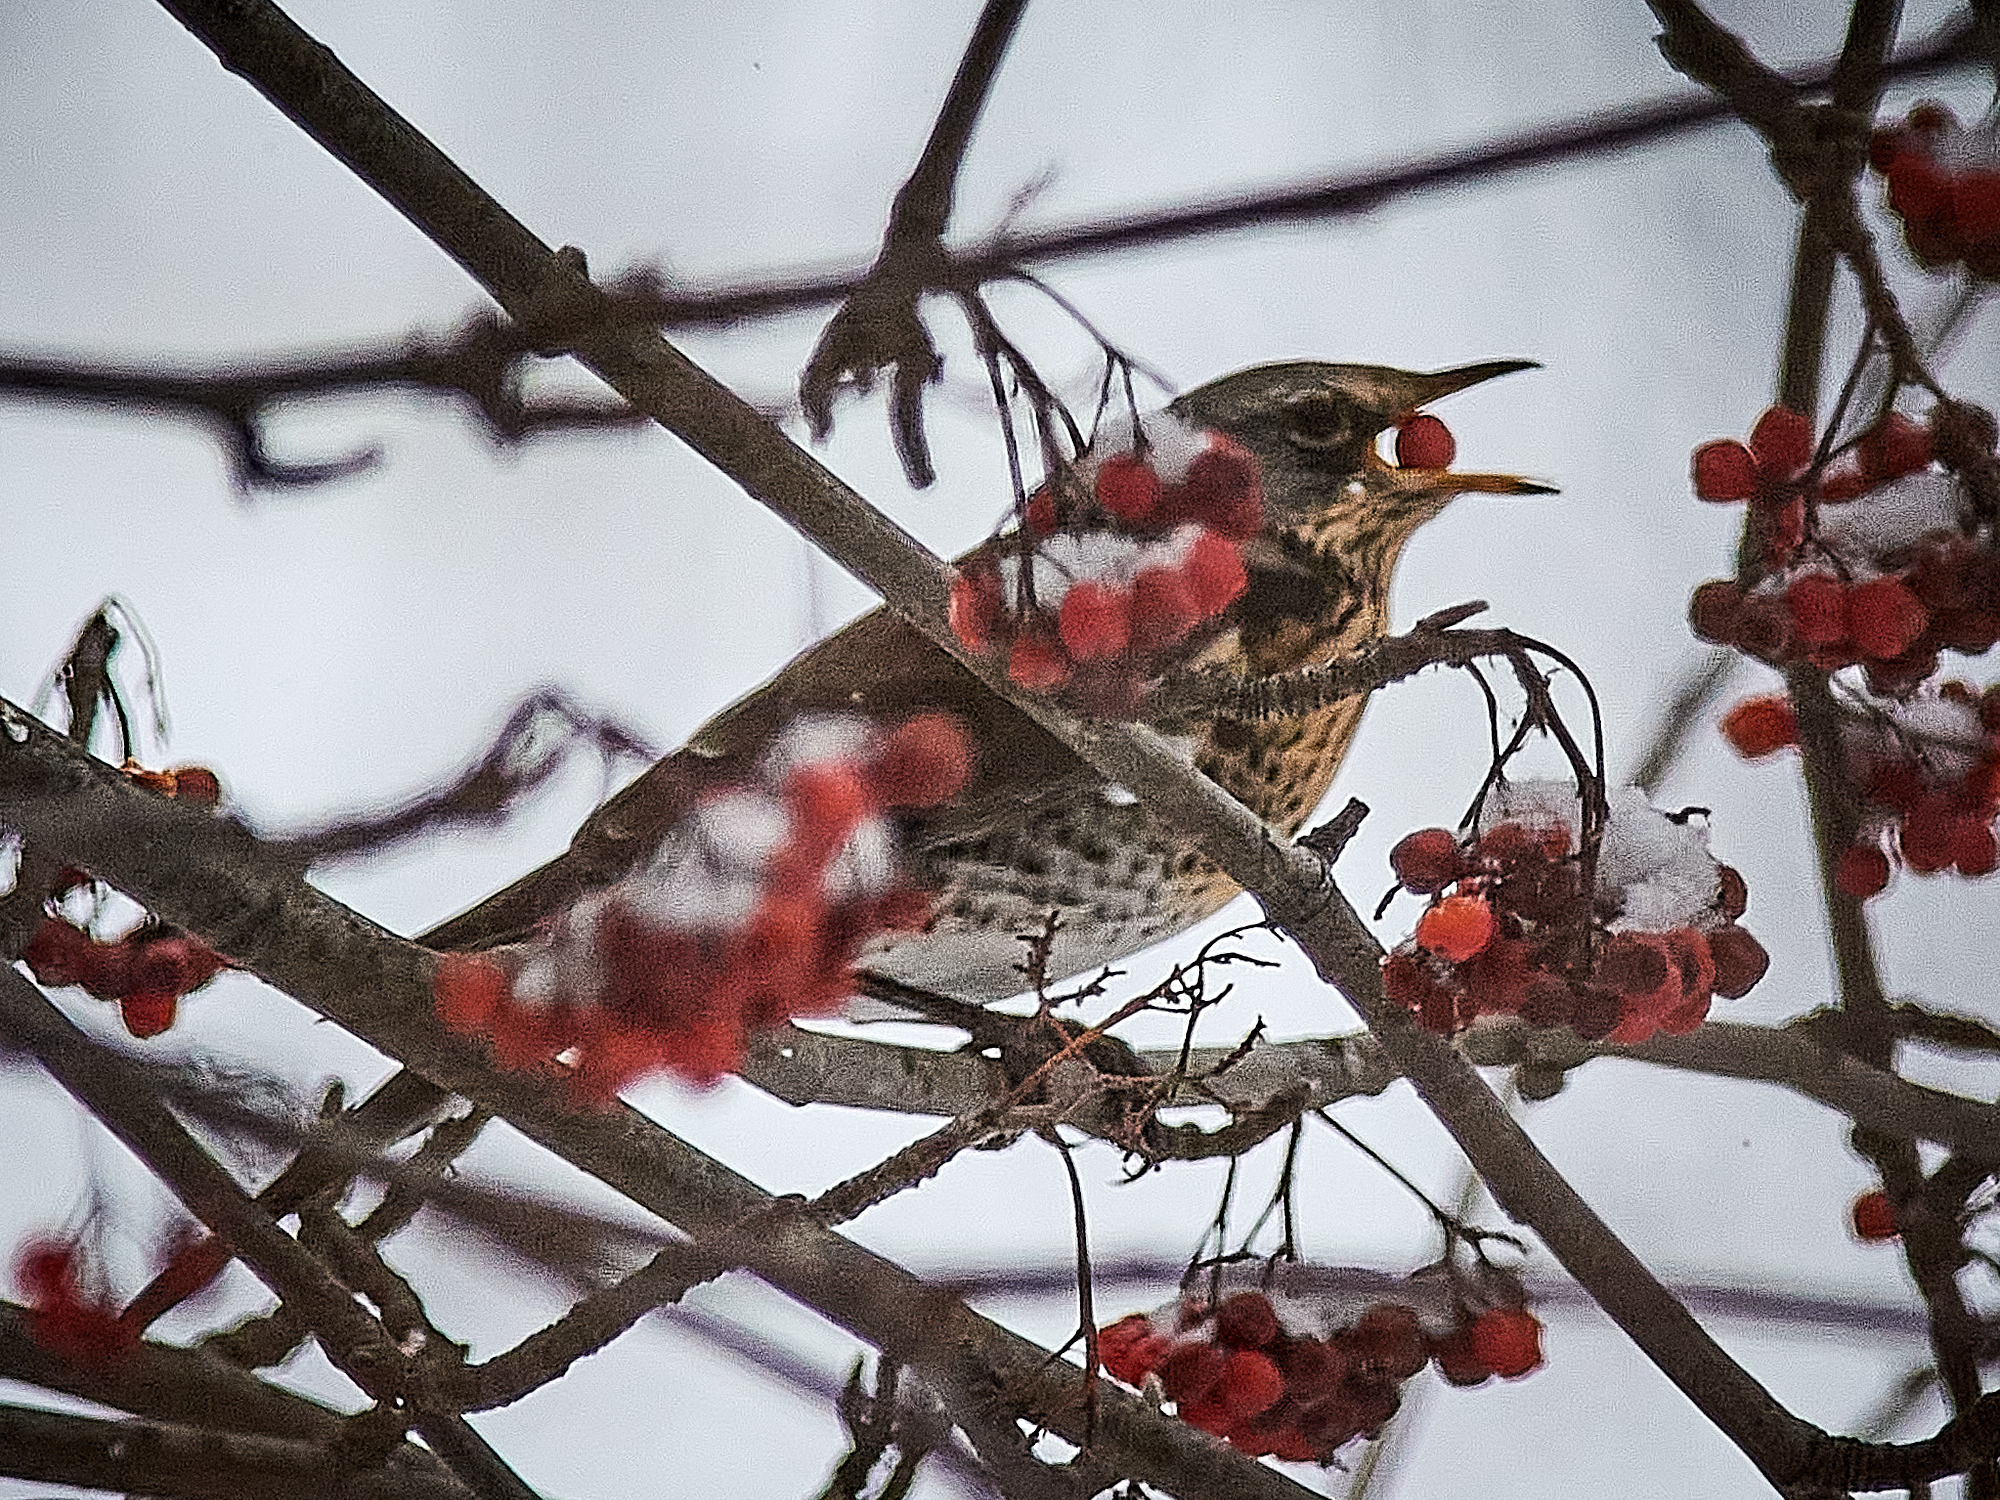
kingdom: Animalia
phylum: Chordata
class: Aves
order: Passeriformes
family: Turdidae
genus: Turdus
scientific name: Turdus pilaris
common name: Fieldfare
